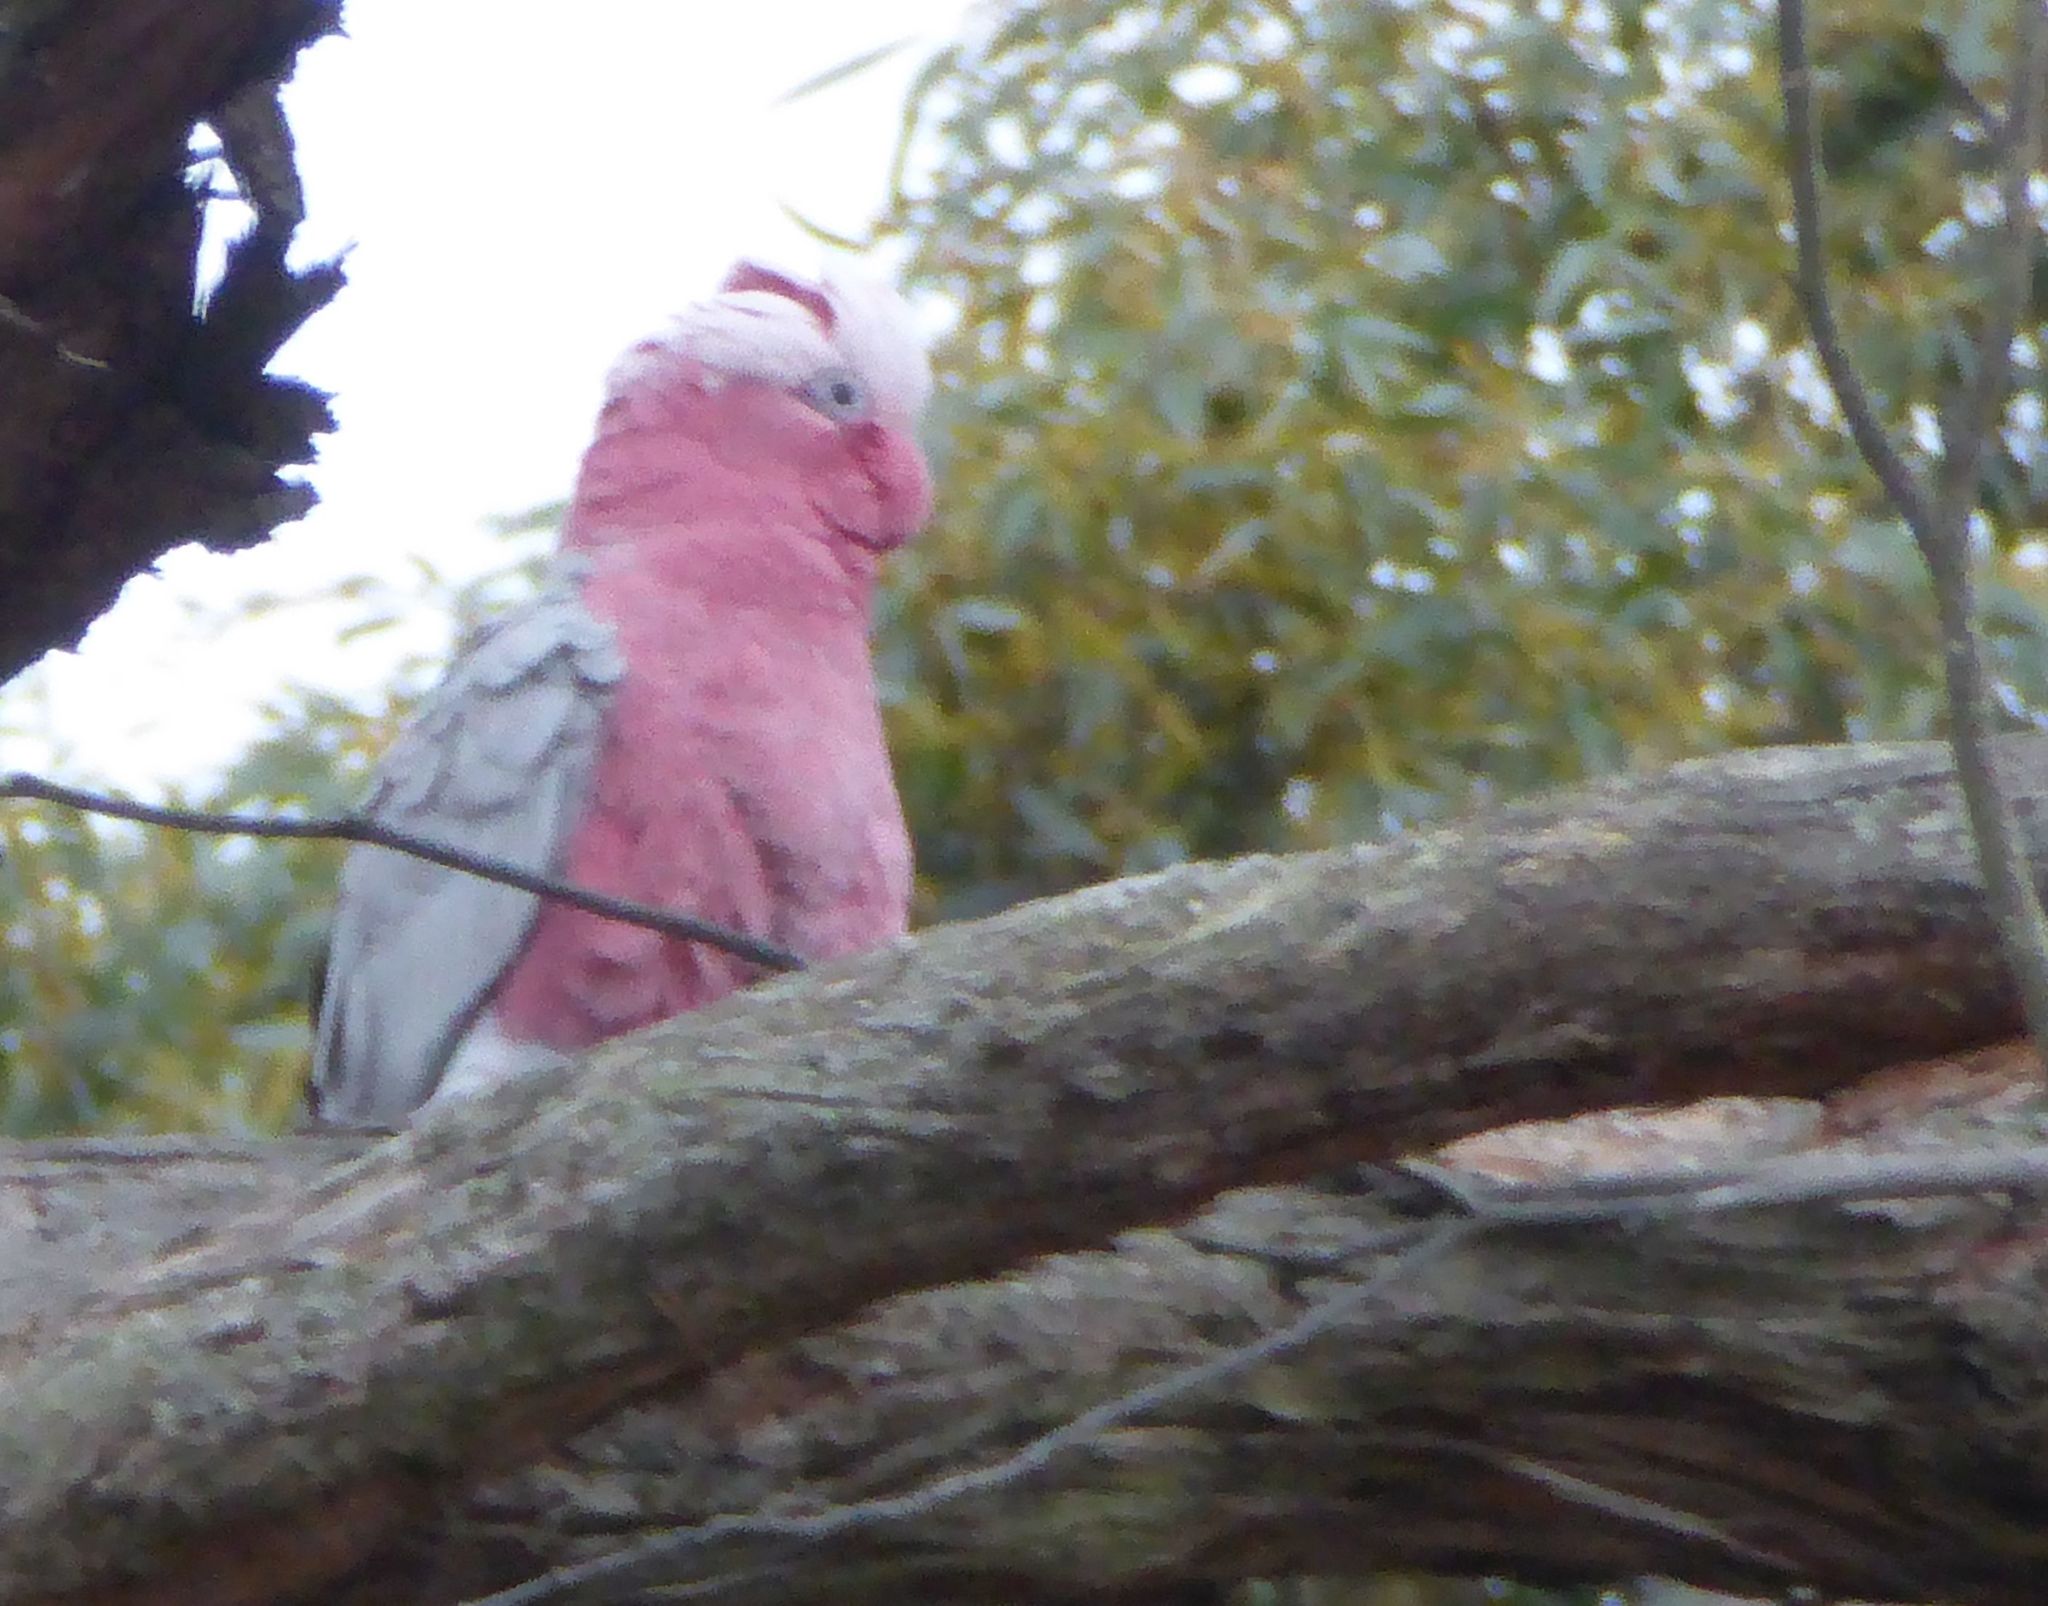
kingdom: Animalia
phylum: Chordata
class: Aves
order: Psittaciformes
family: Psittacidae
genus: Eolophus
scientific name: Eolophus roseicapilla
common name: Galah
